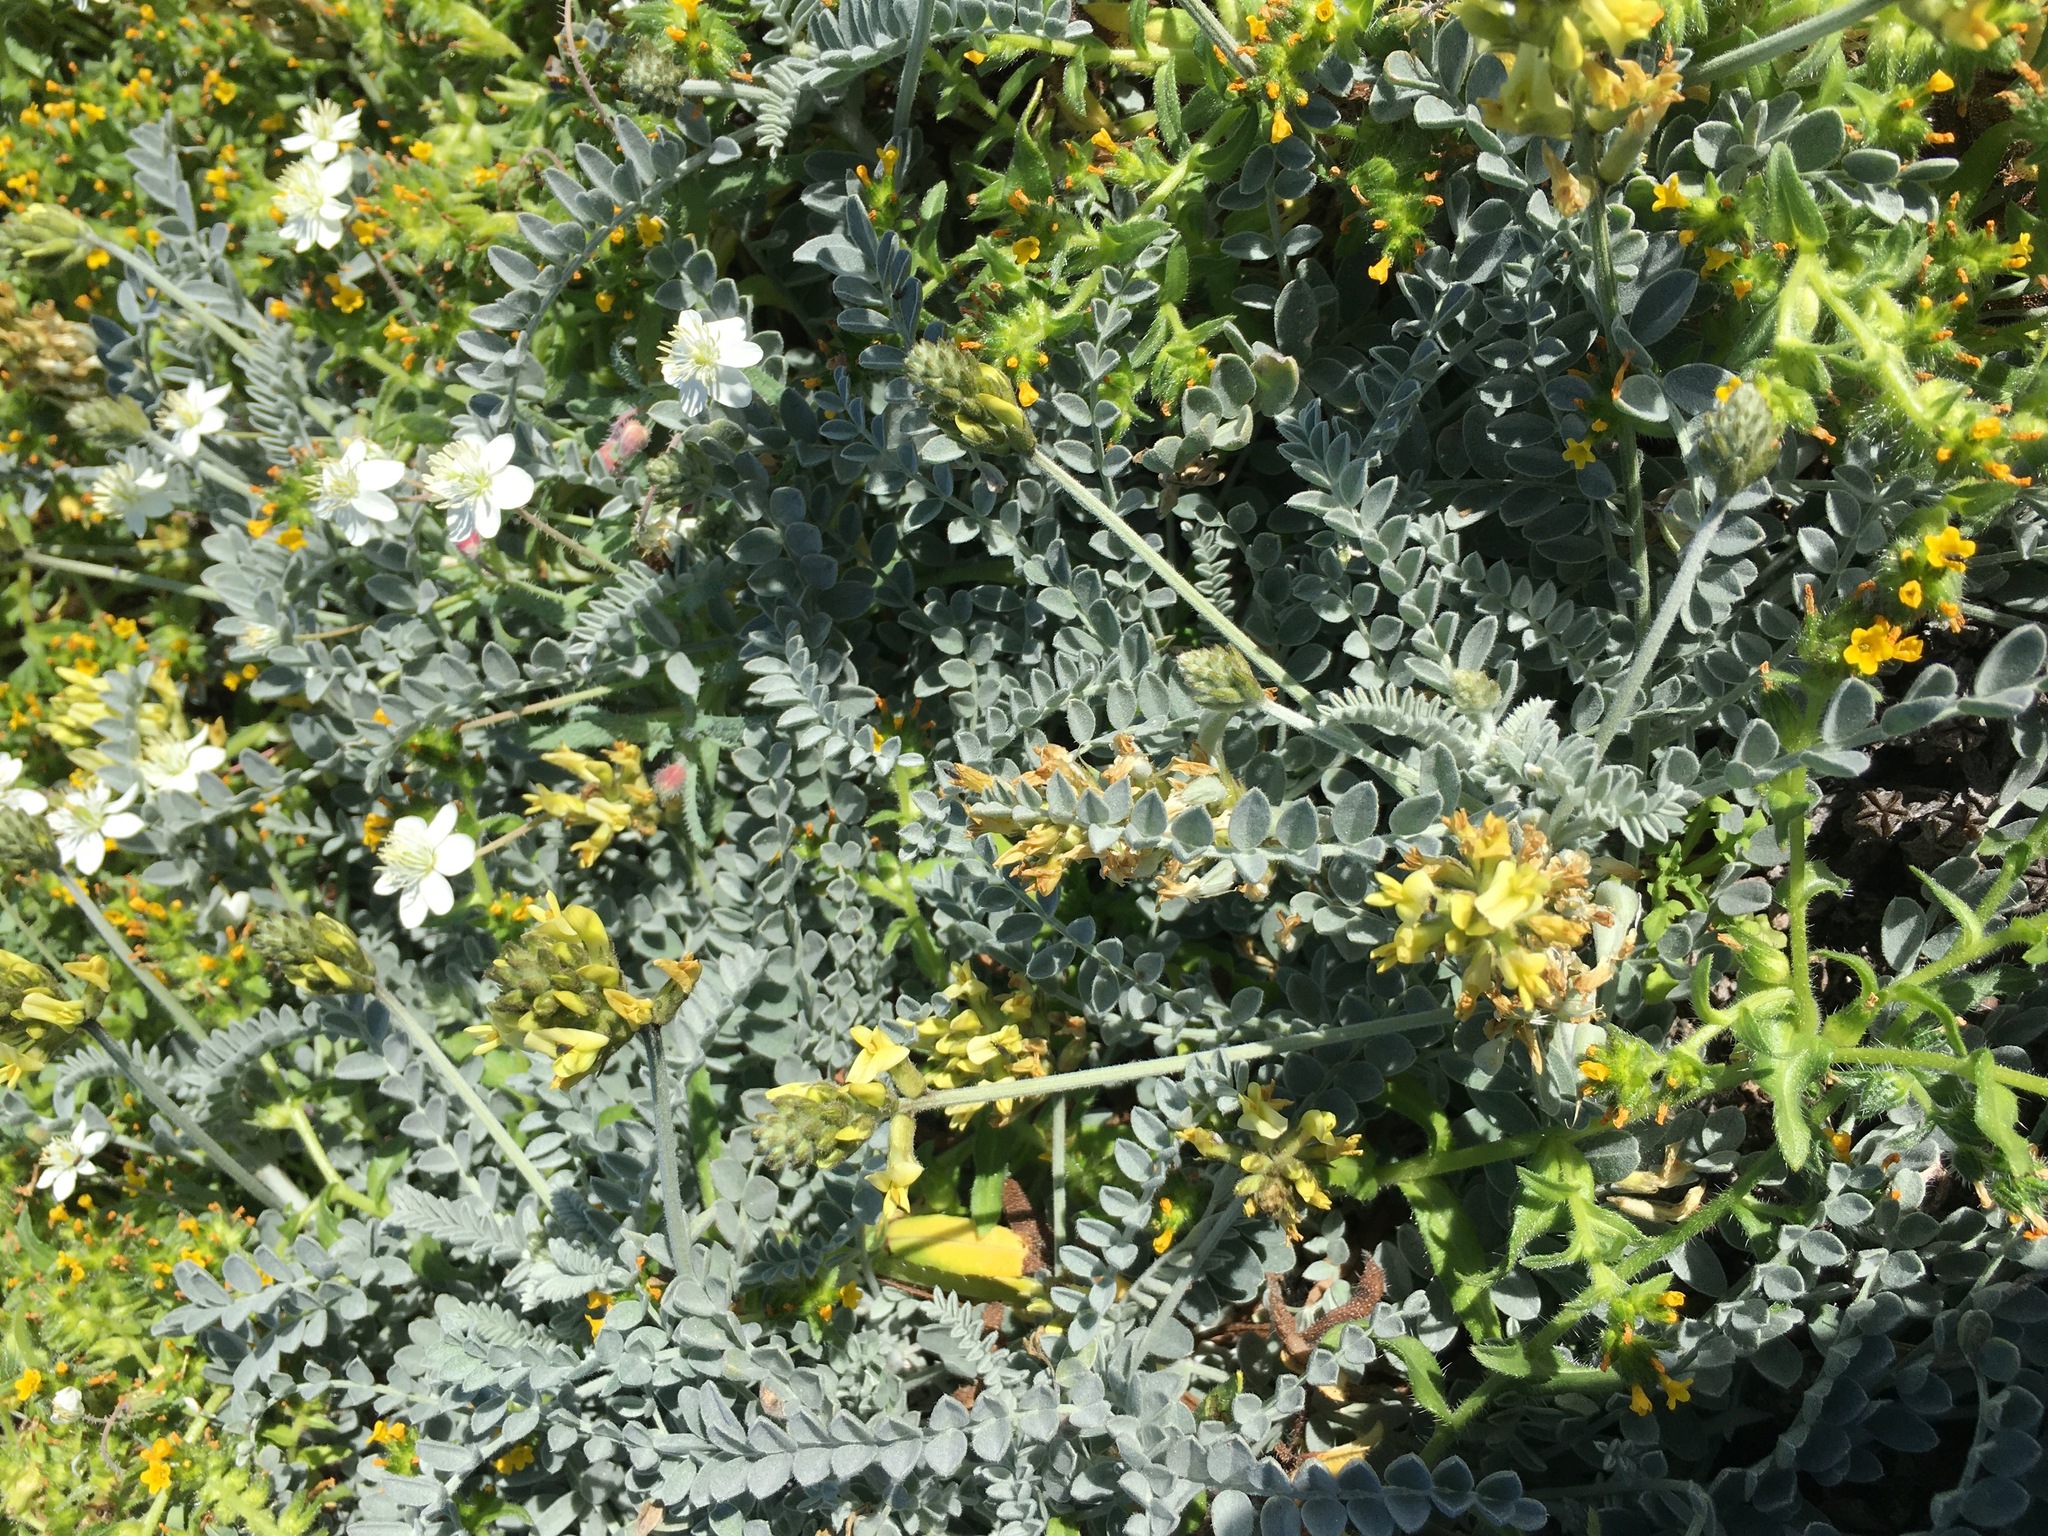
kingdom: Plantae
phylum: Tracheophyta
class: Magnoliopsida
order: Fabales
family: Fabaceae
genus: Astragalus
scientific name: Astragalus traskiae
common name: Trask's milk-vetch
